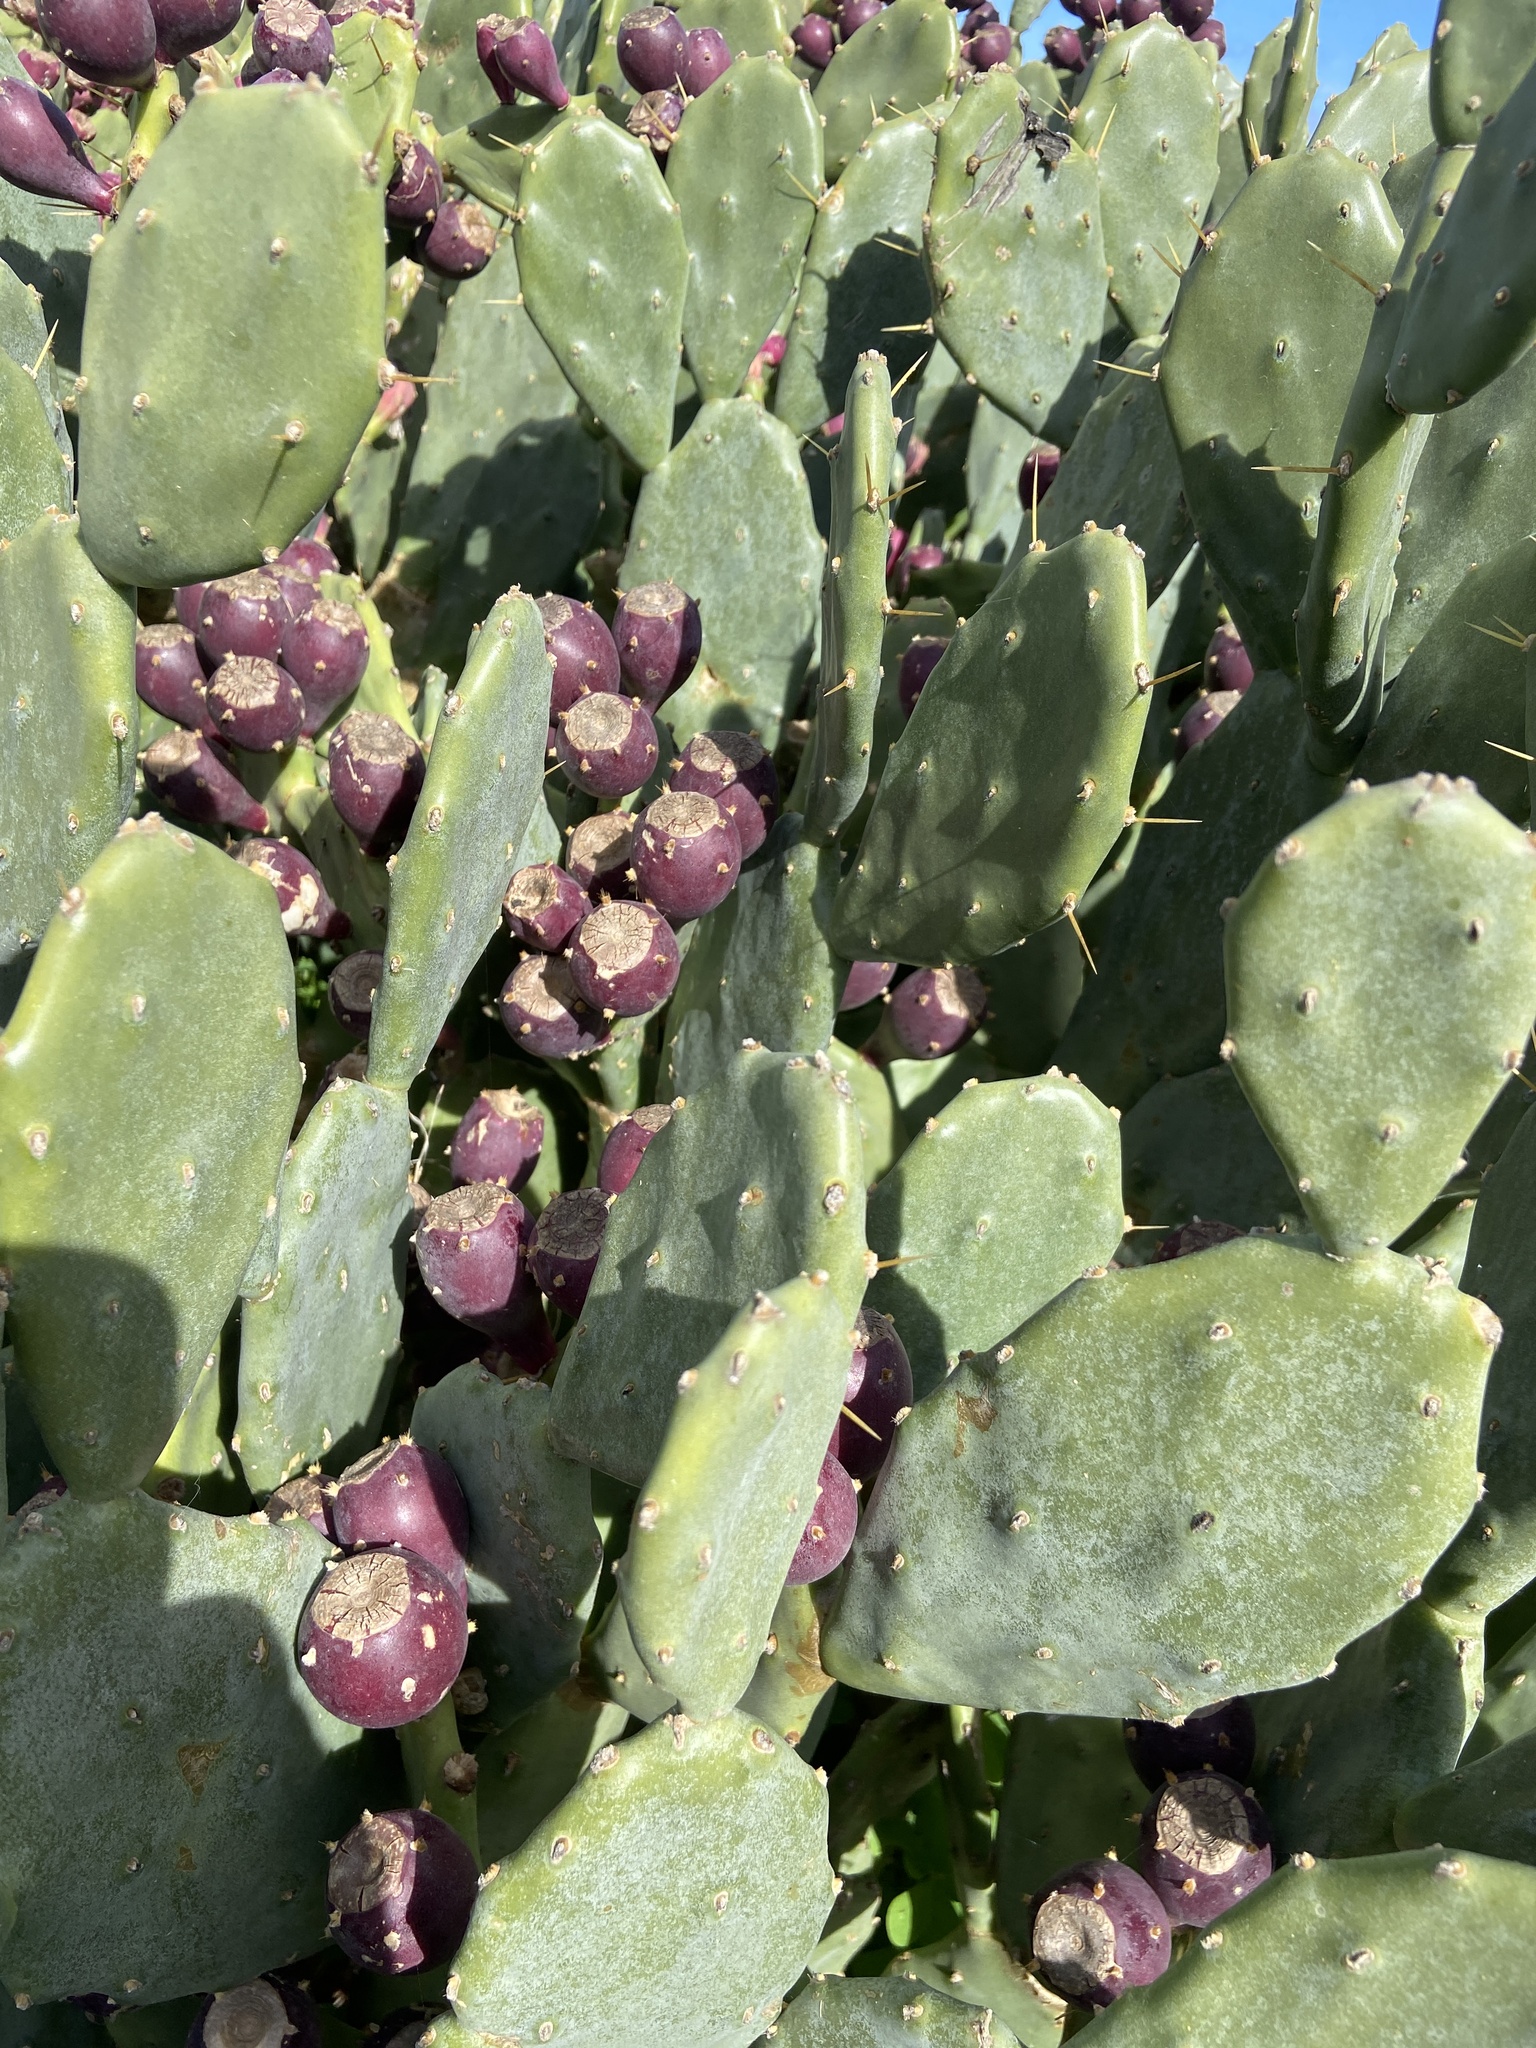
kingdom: Plantae
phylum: Tracheophyta
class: Magnoliopsida
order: Caryophyllales
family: Cactaceae
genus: Opuntia
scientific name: Opuntia stricta
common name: Erect pricklypear
